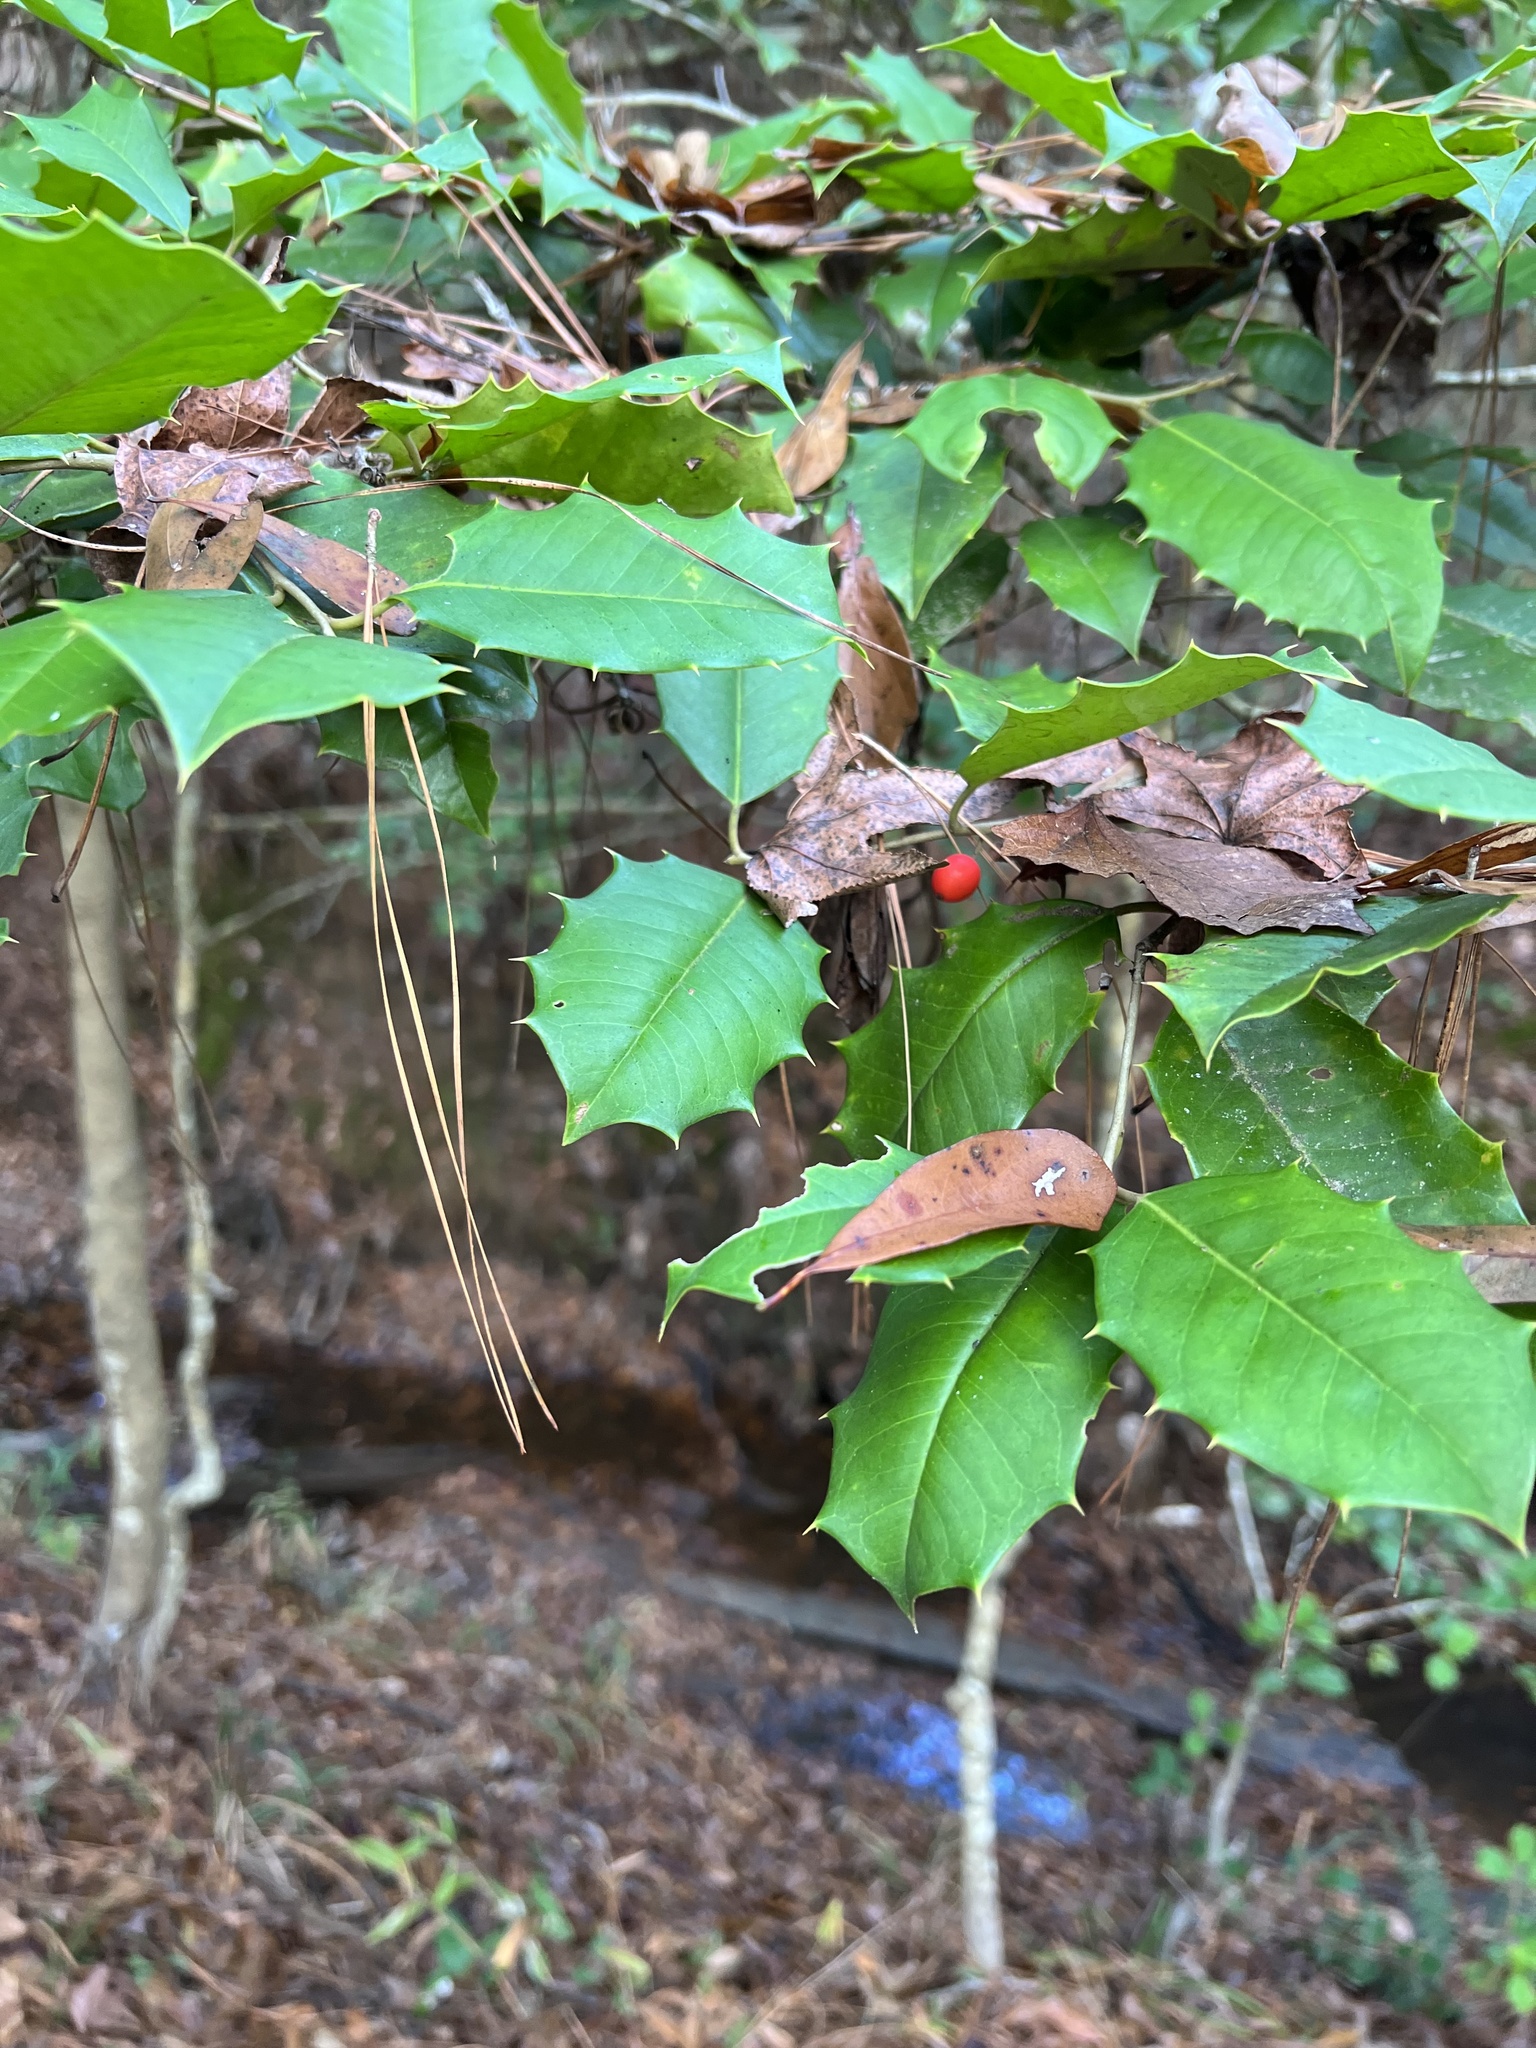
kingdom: Plantae
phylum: Tracheophyta
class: Magnoliopsida
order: Aquifoliales
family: Aquifoliaceae
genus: Ilex
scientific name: Ilex opaca
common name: American holly
